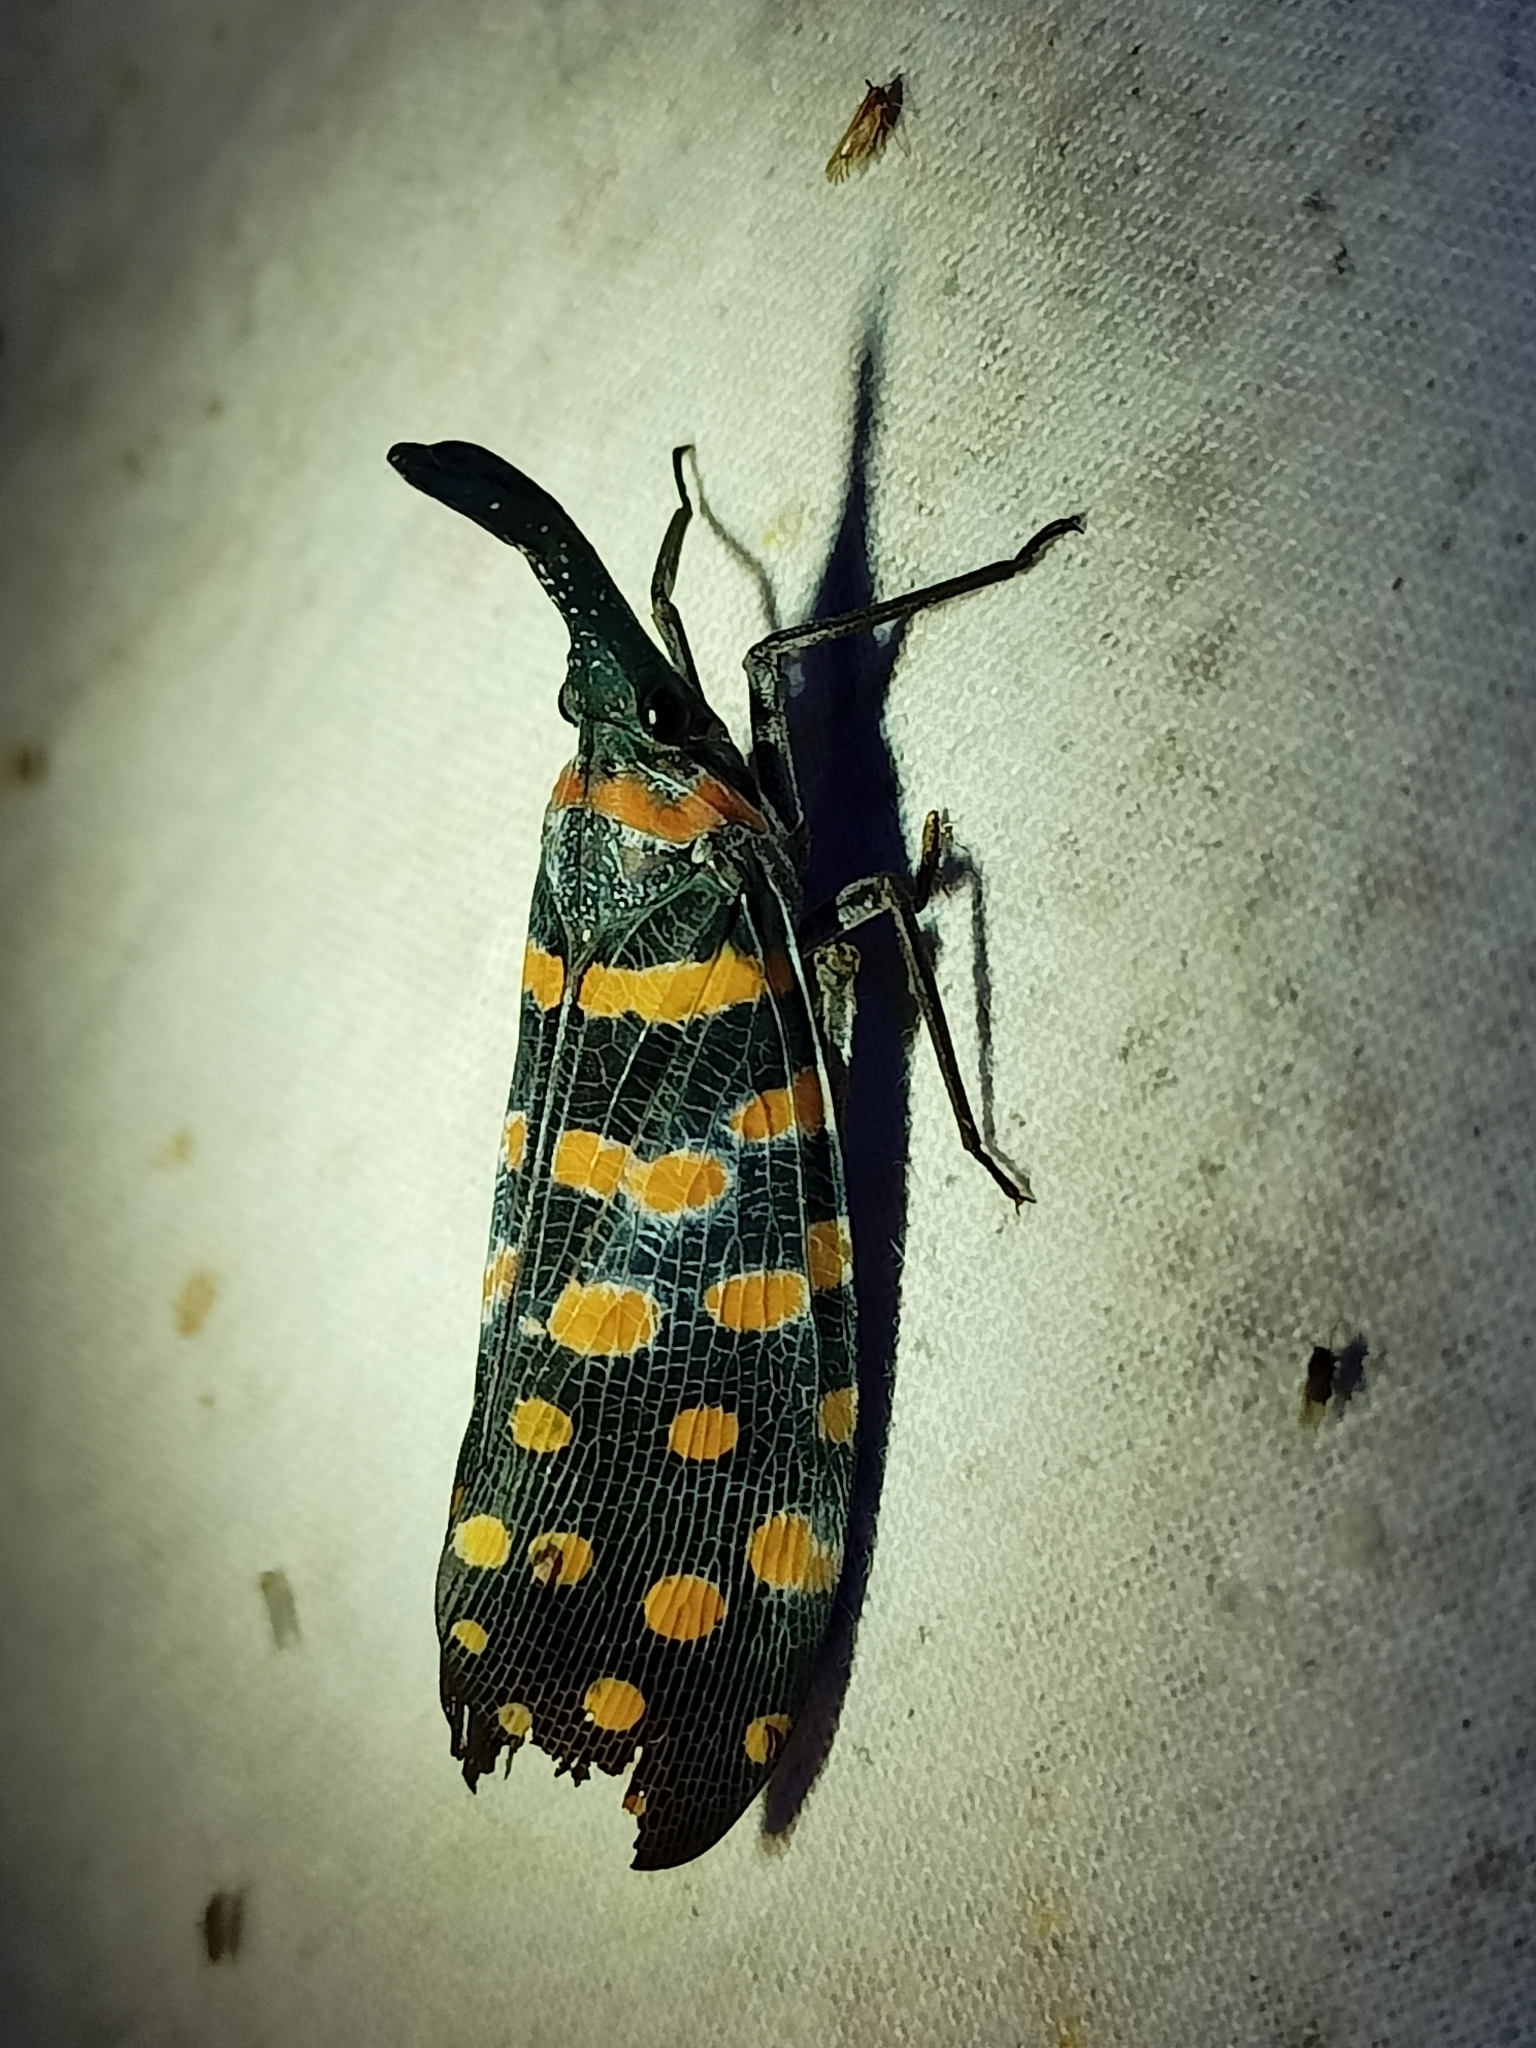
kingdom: Animalia
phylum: Arthropoda
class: Insecta
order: Hemiptera
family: Fulgoridae
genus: Pyrops
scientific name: Pyrops
